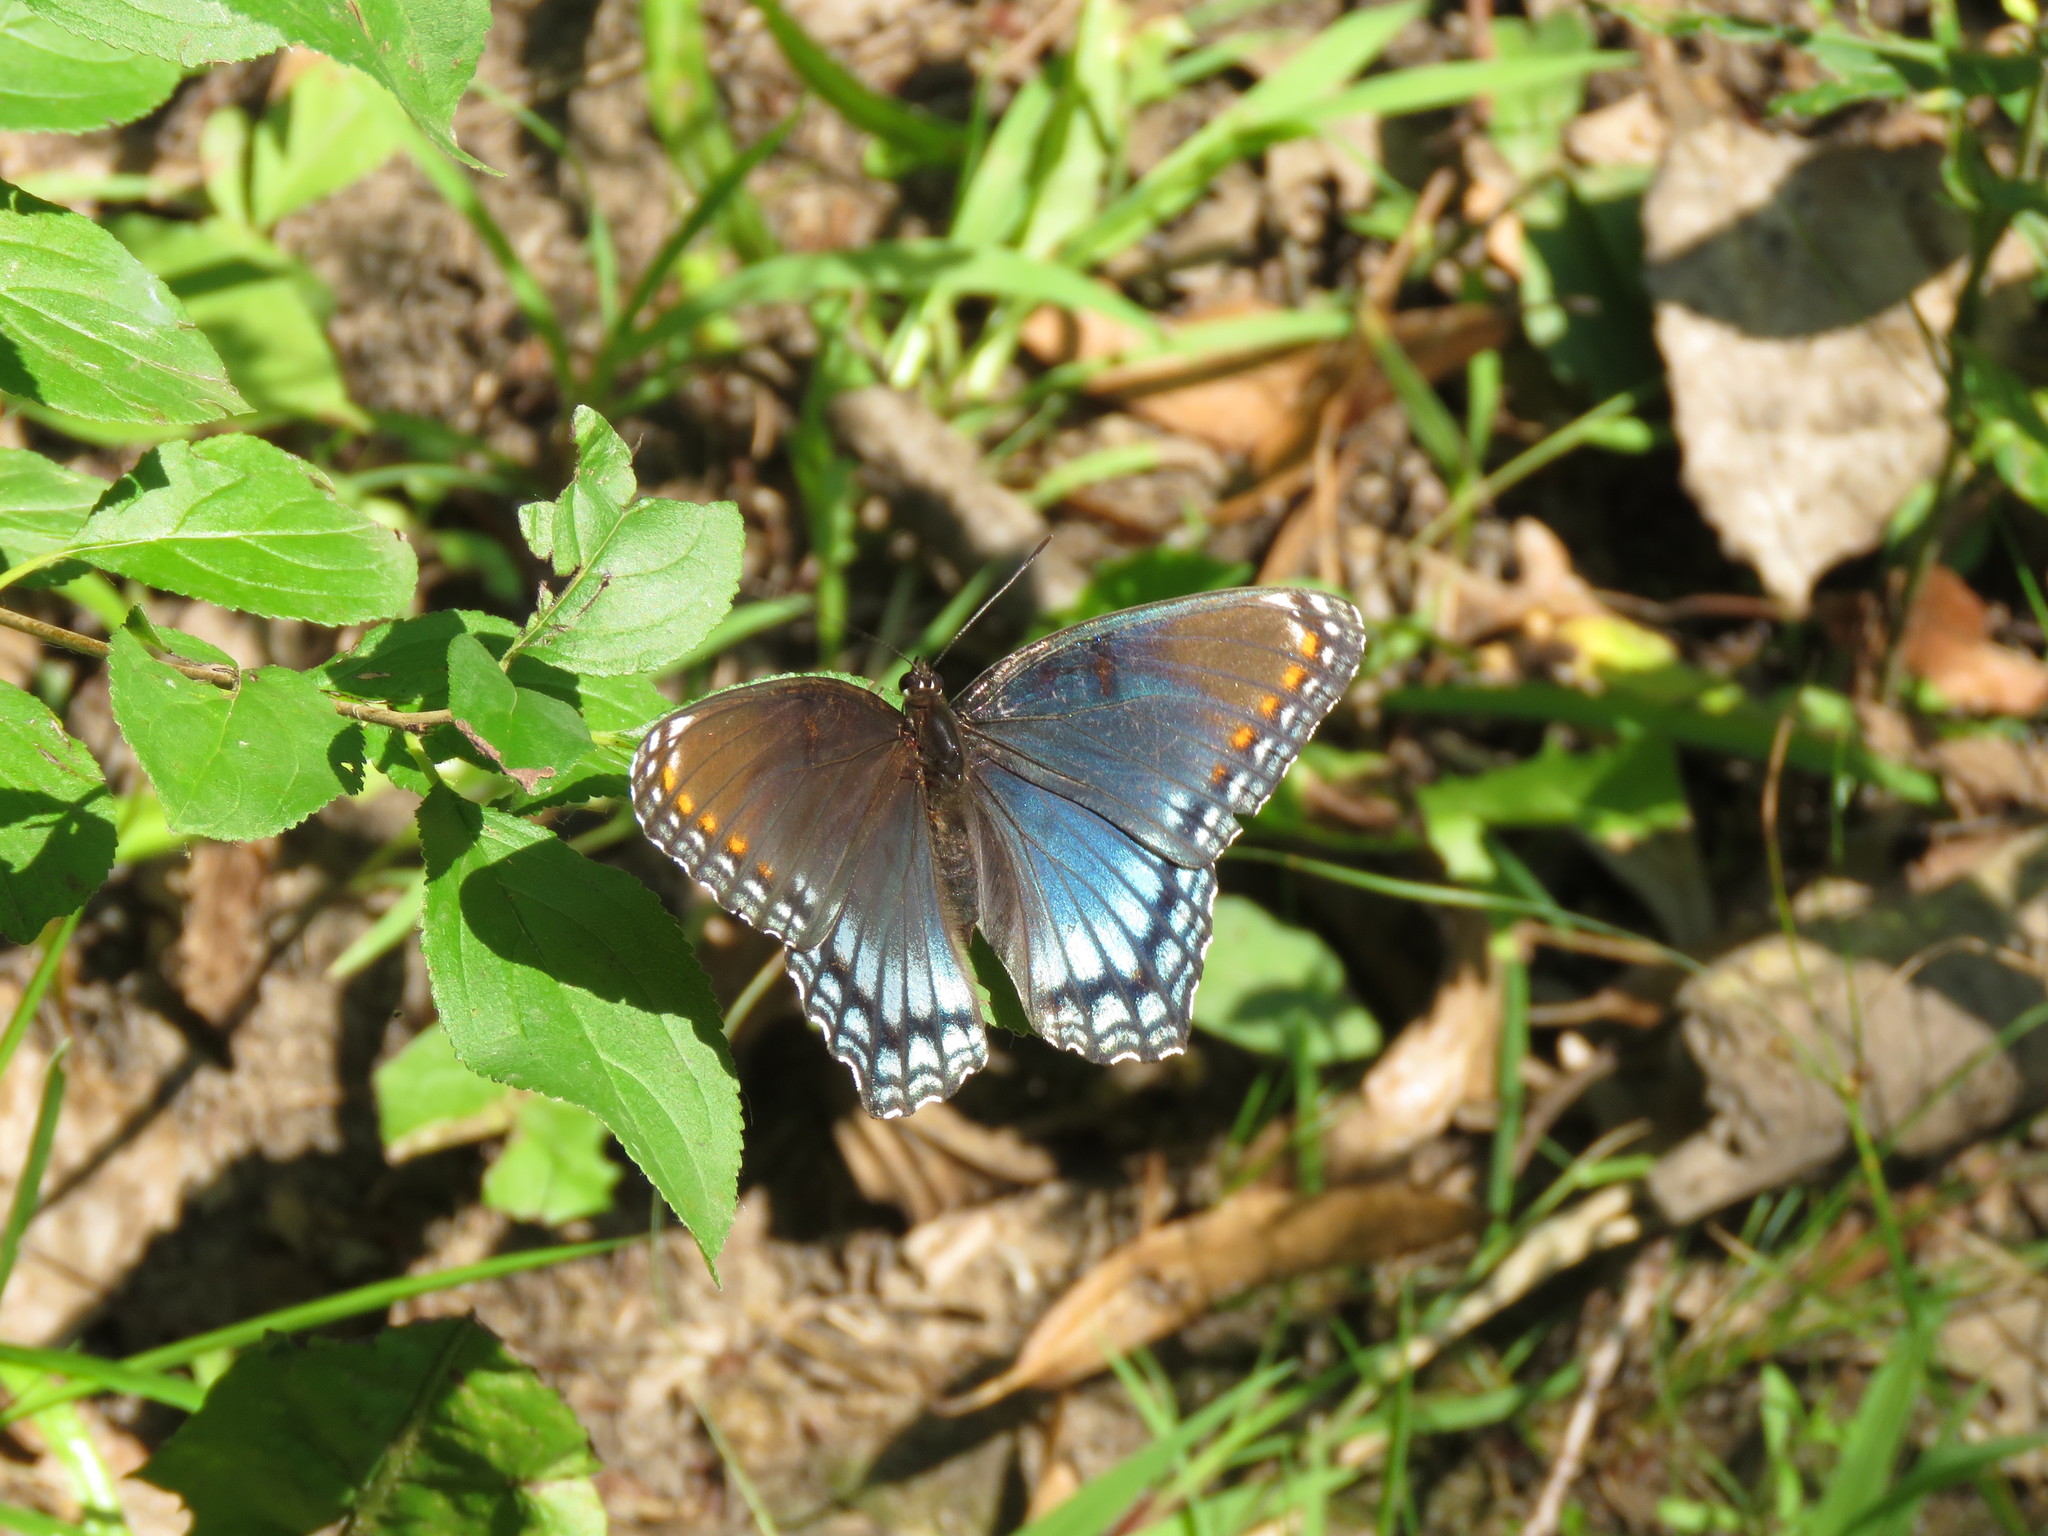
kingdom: Animalia
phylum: Arthropoda
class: Insecta
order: Lepidoptera
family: Nymphalidae
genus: Limenitis
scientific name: Limenitis astyanax
